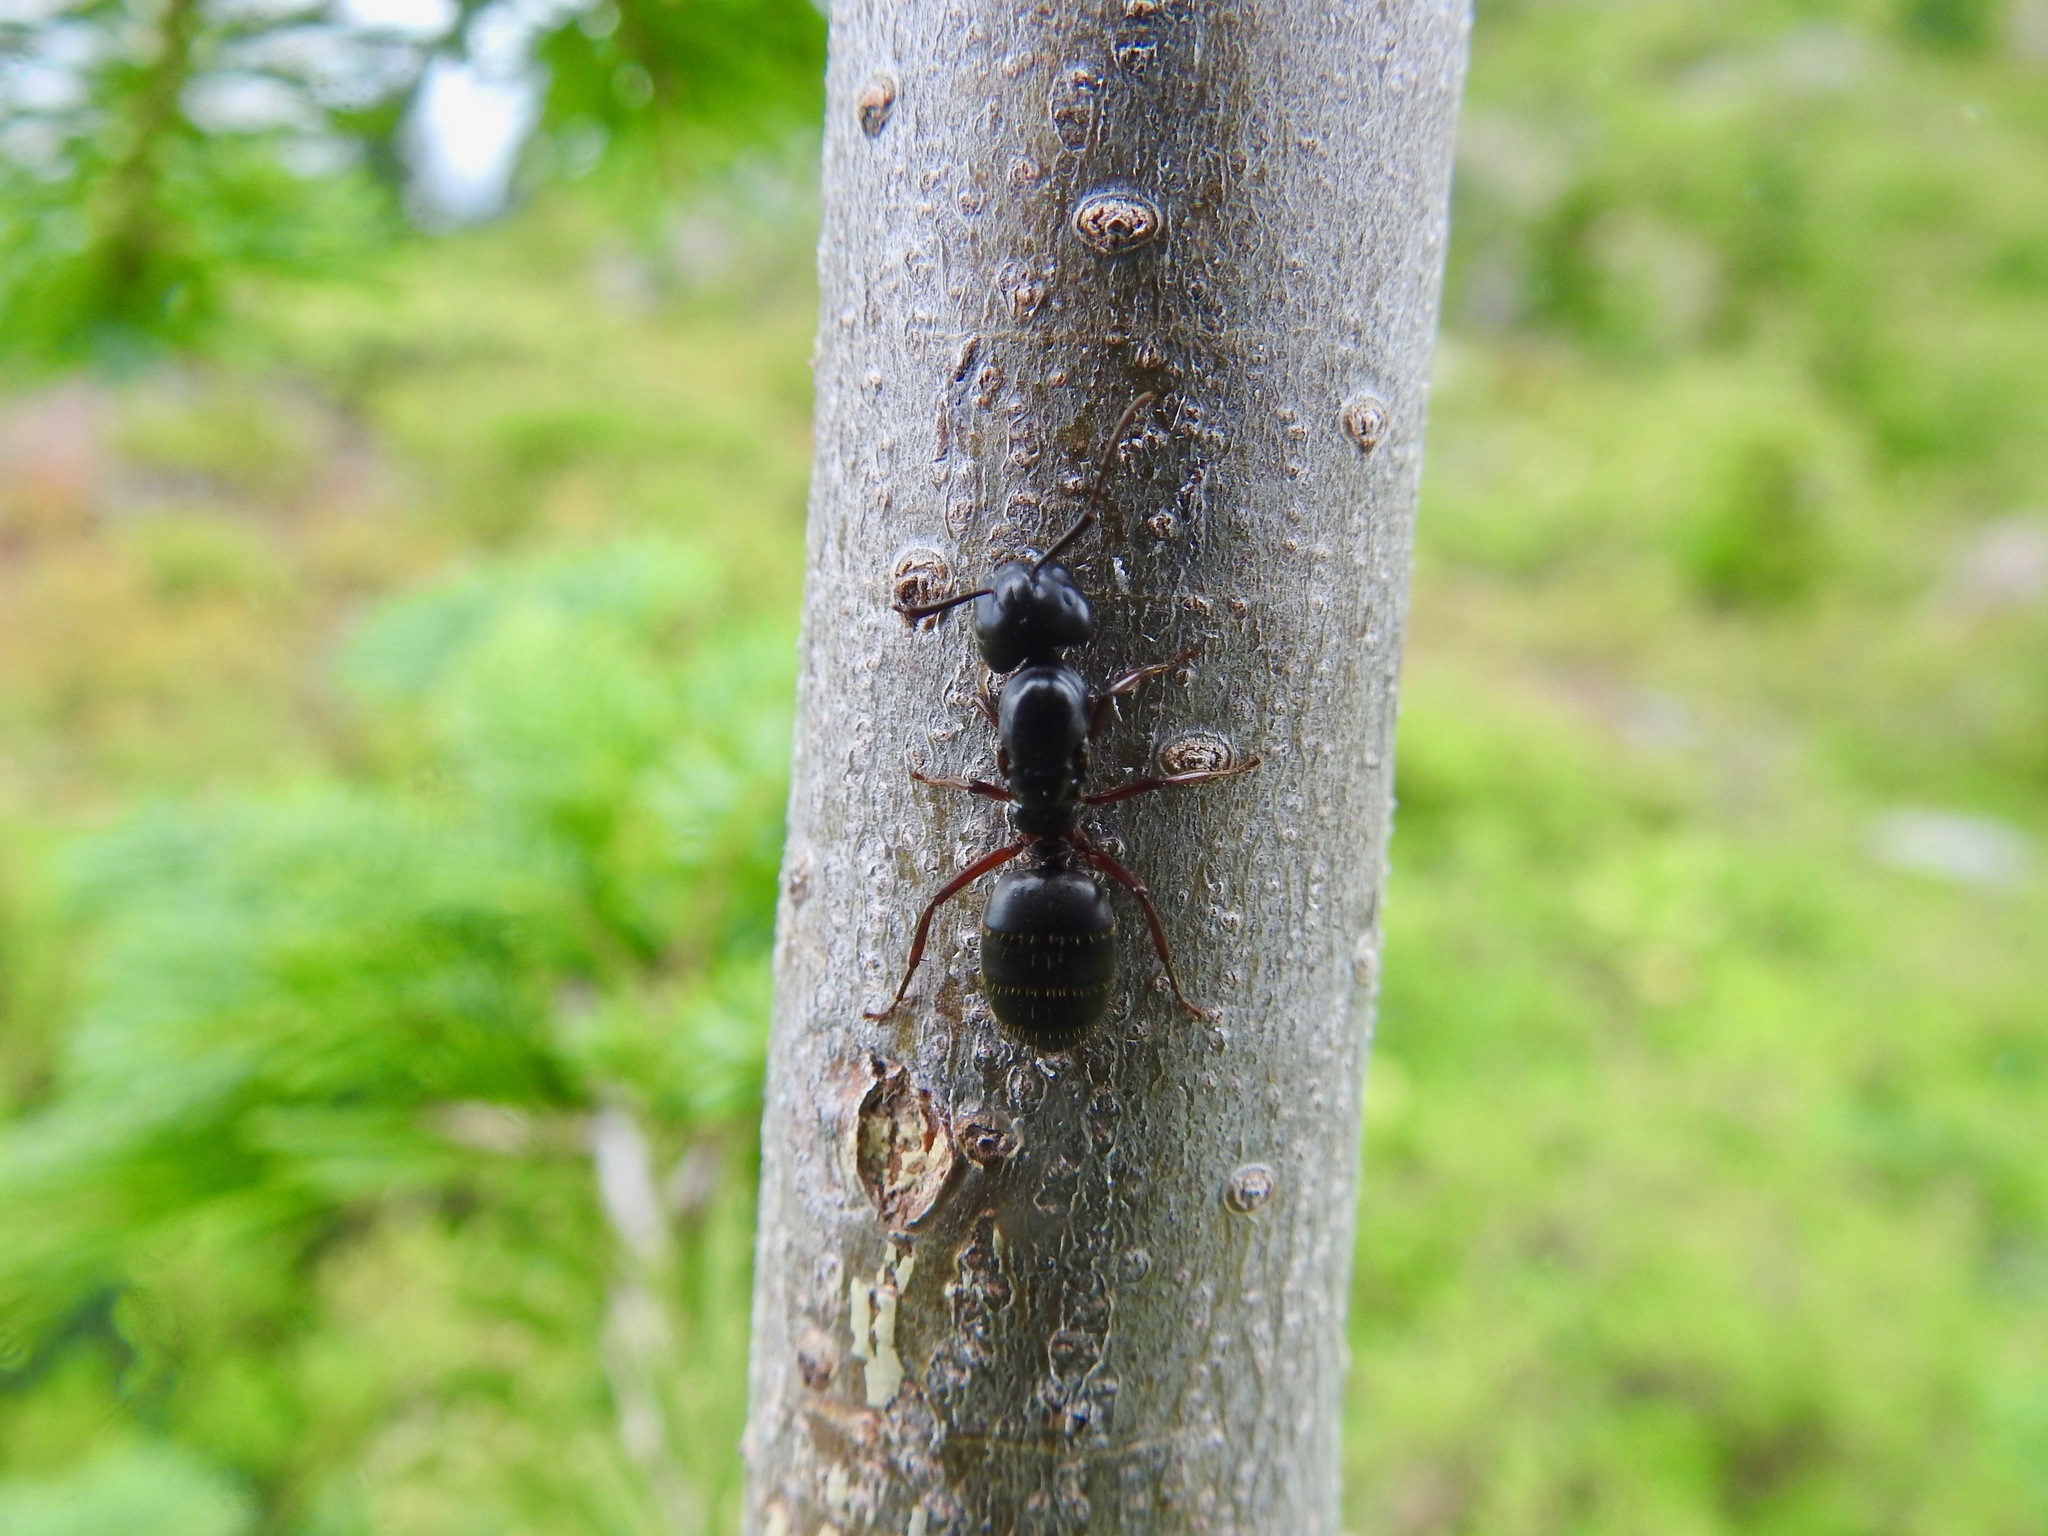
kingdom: Animalia
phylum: Arthropoda
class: Insecta
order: Hymenoptera
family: Formicidae
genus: Camponotus
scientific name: Camponotus modoc
